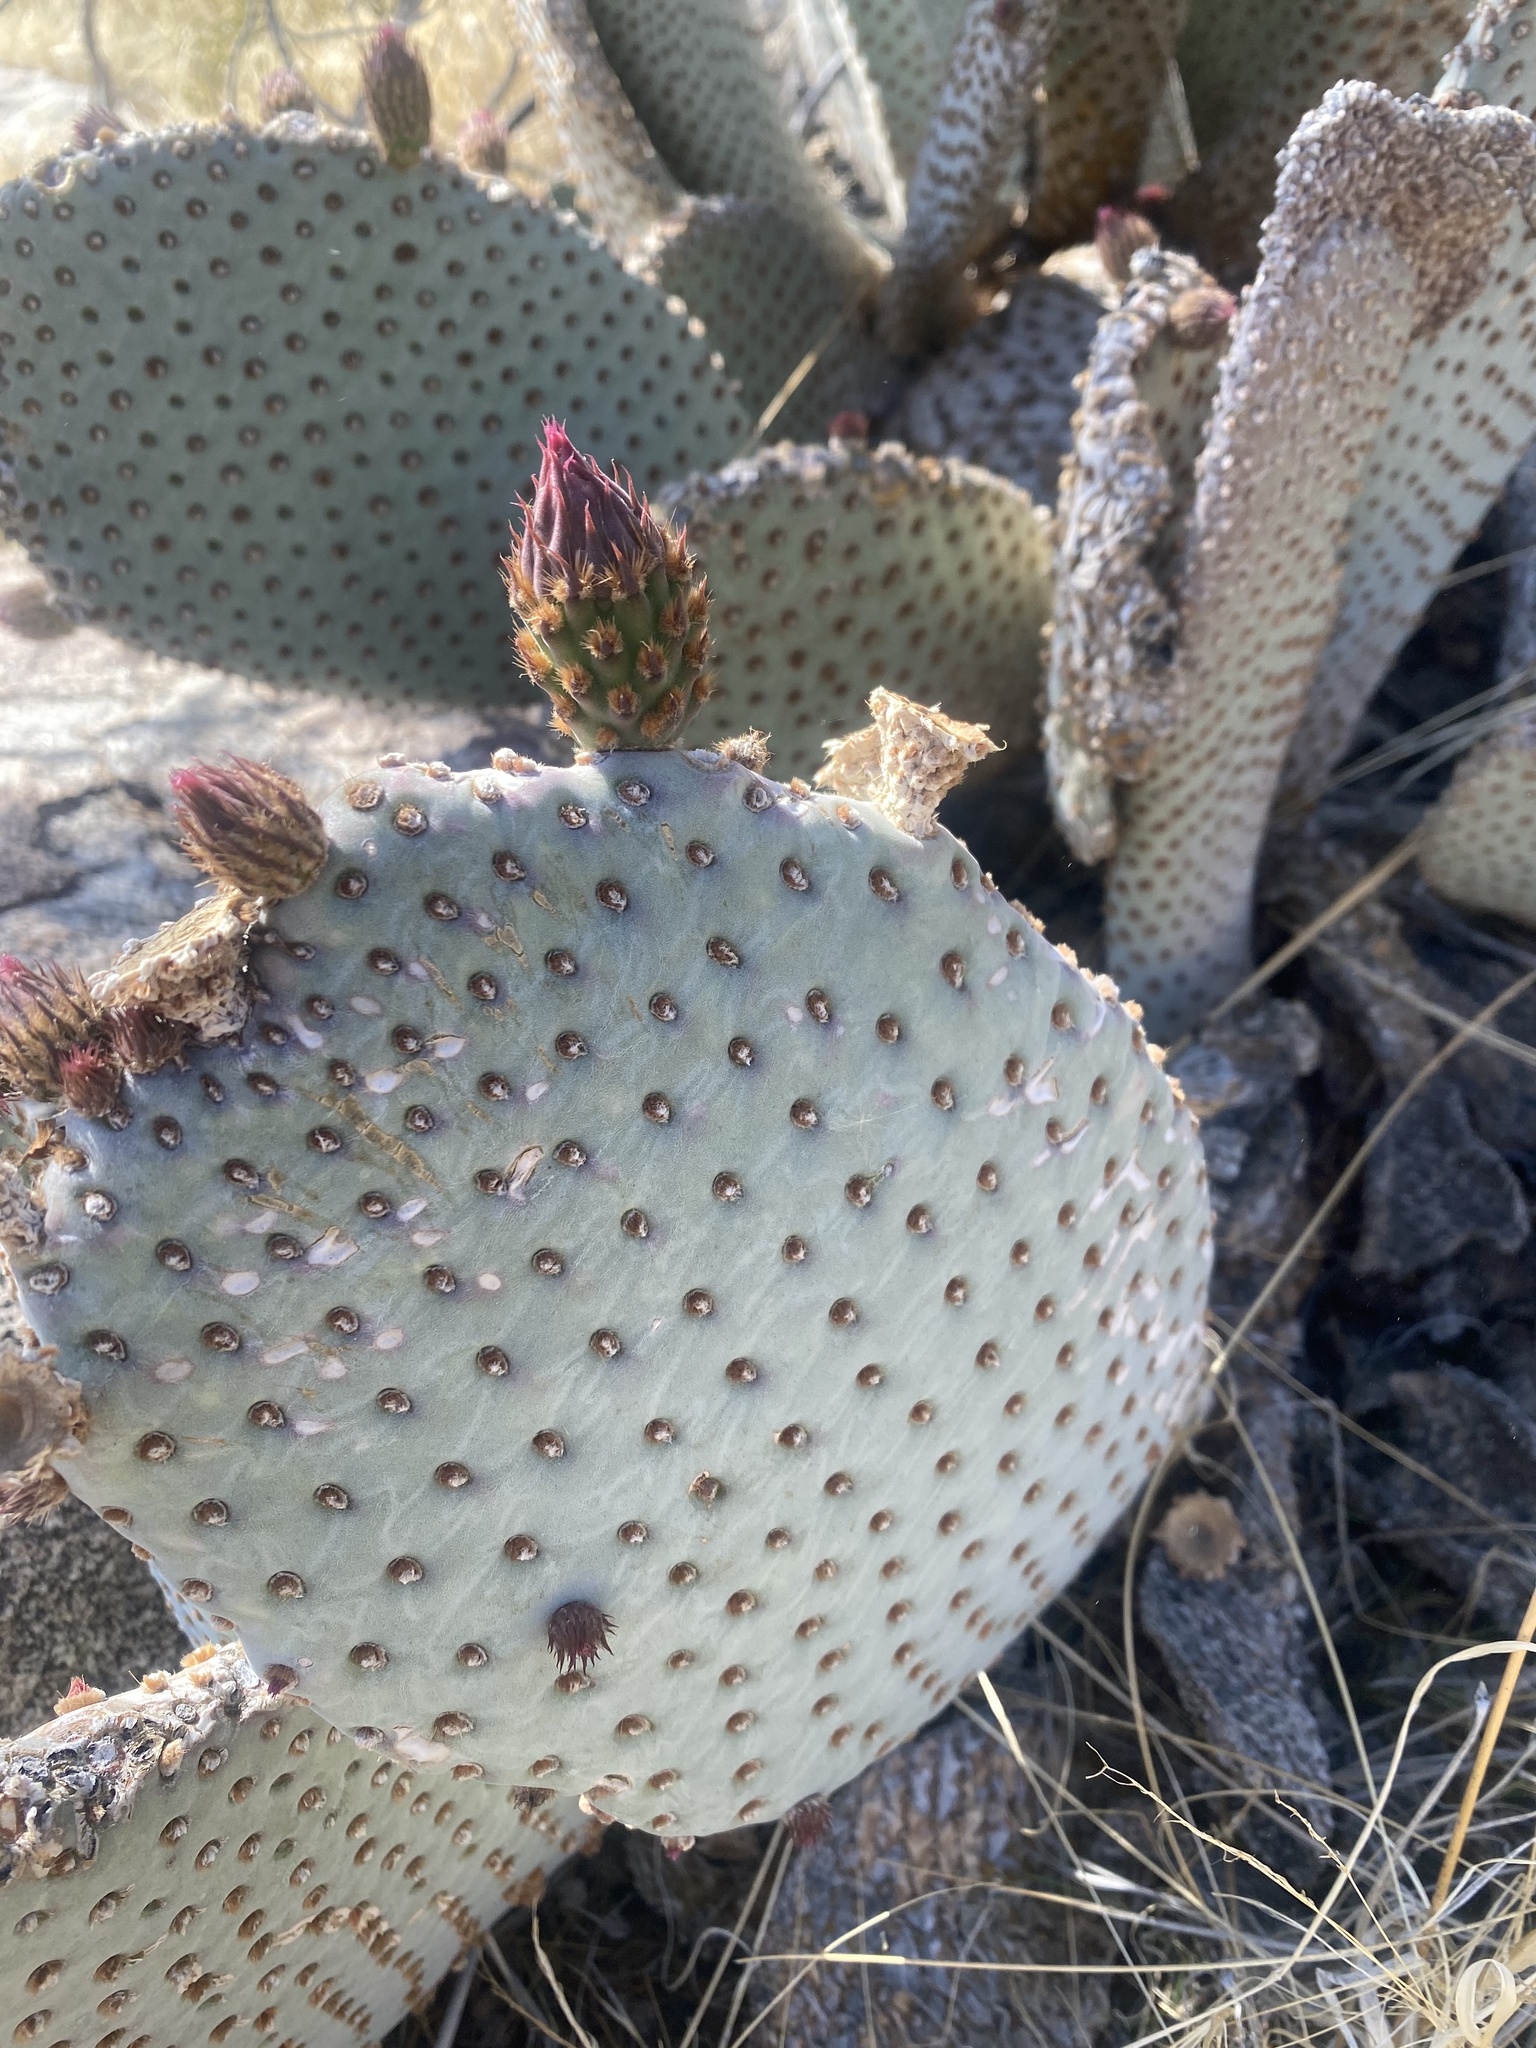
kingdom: Plantae
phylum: Tracheophyta
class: Magnoliopsida
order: Caryophyllales
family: Cactaceae
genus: Opuntia
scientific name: Opuntia basilaris
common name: Beavertail prickly-pear
